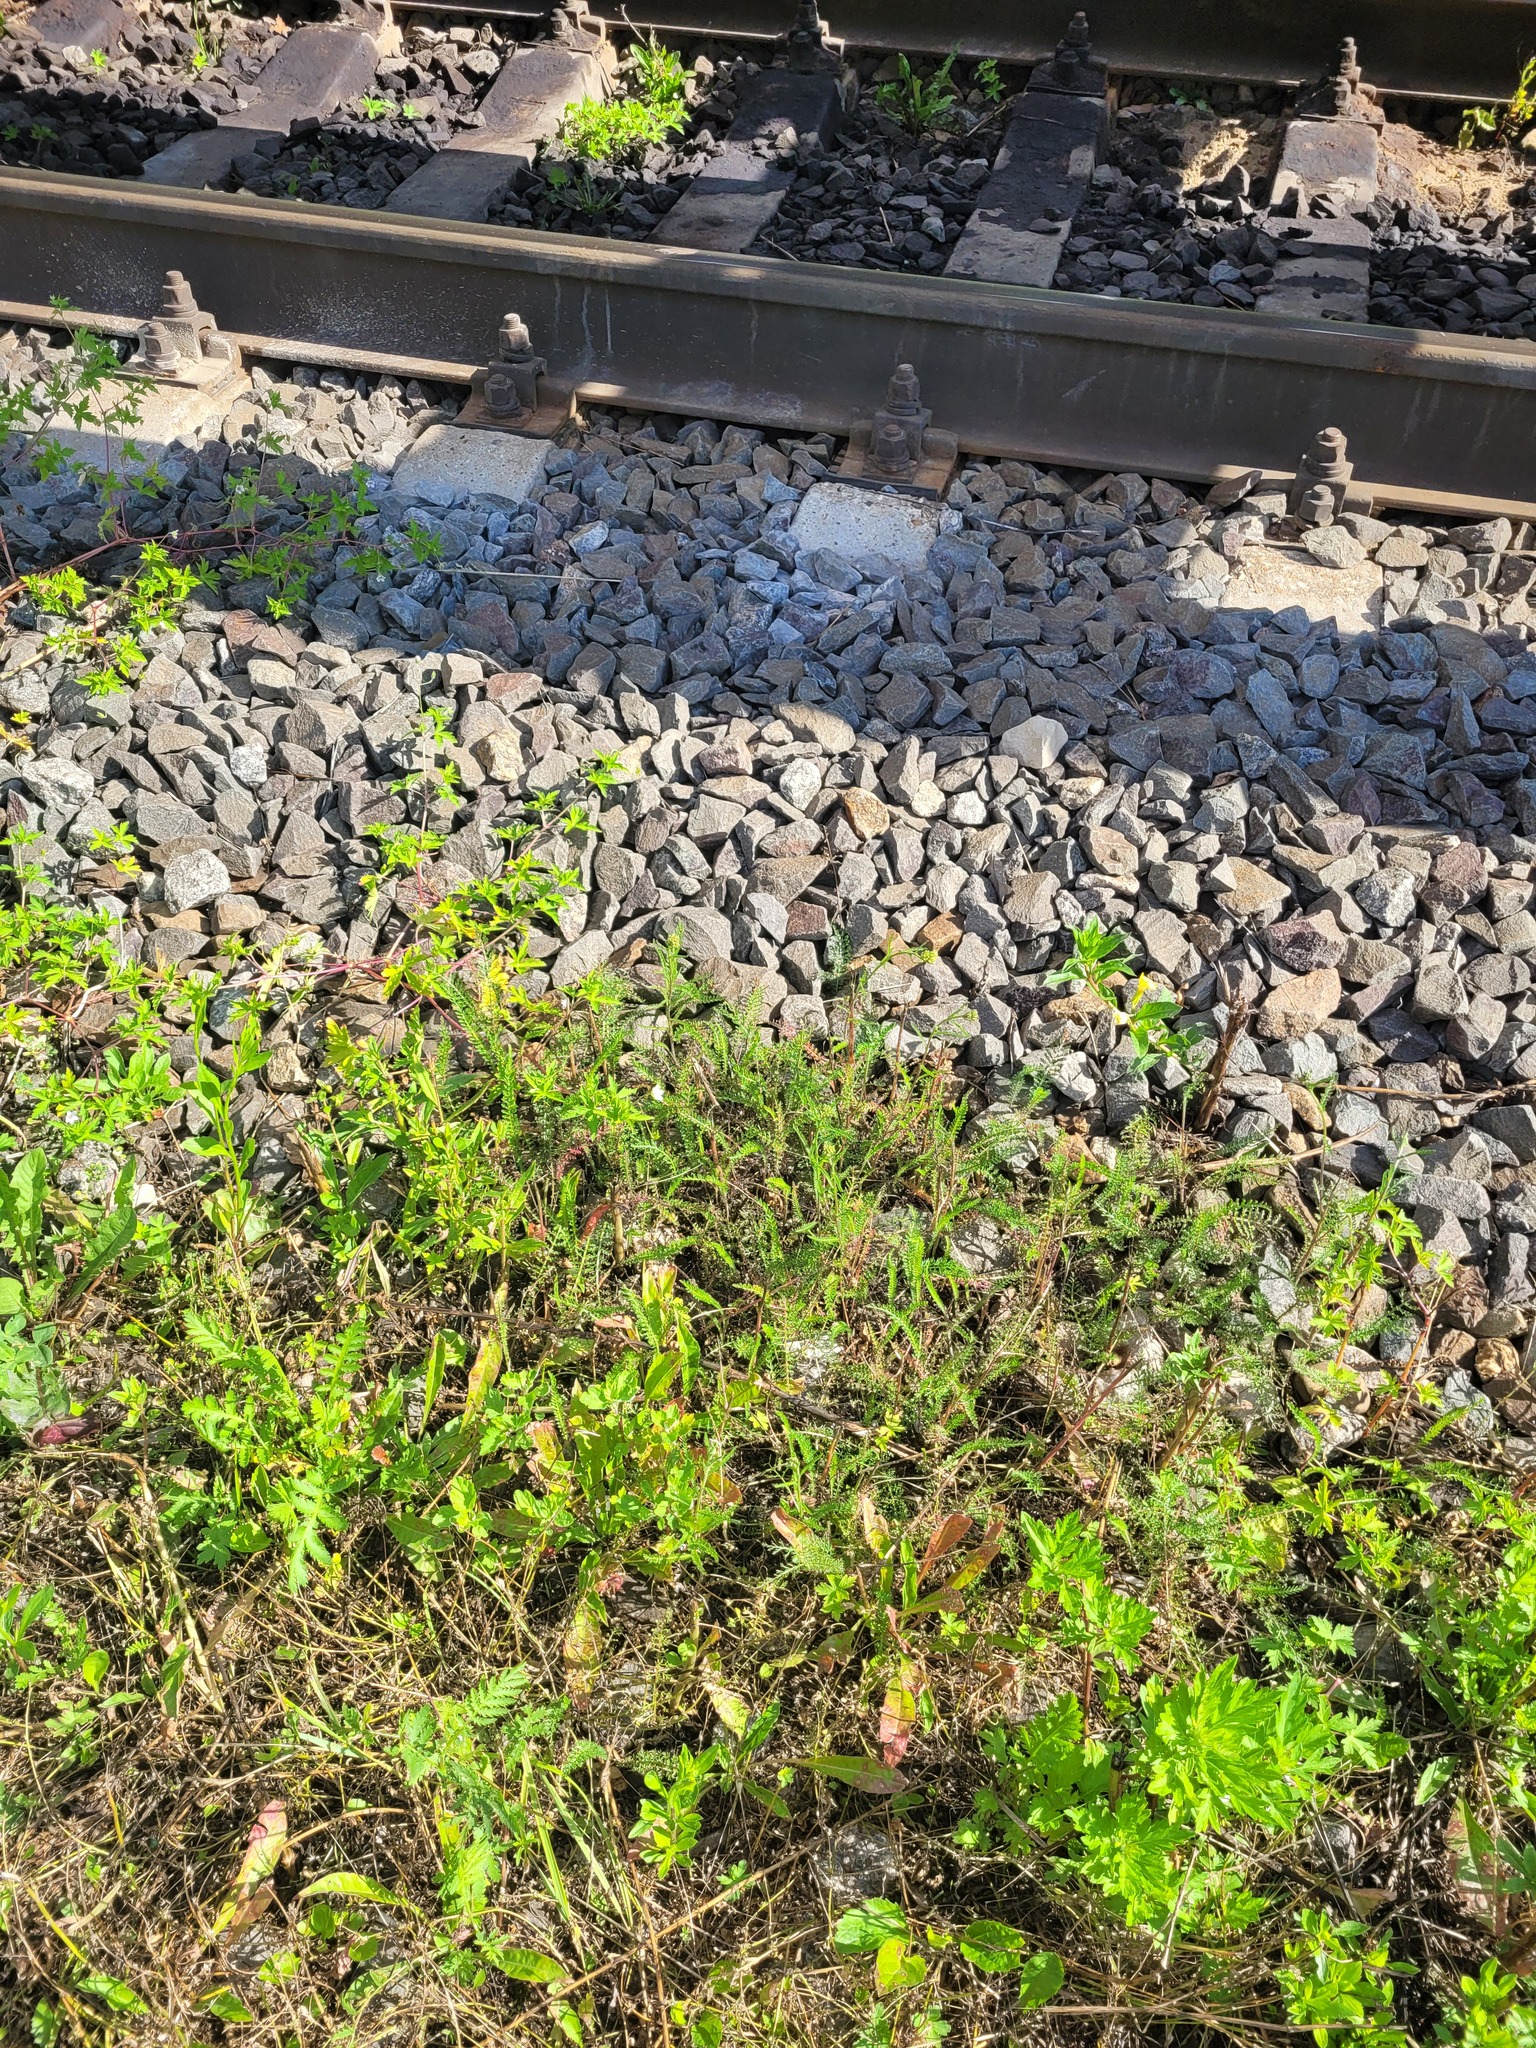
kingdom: Plantae
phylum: Tracheophyta
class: Magnoliopsida
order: Asterales
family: Asteraceae
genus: Achillea
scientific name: Achillea millefolium
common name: Yarrow
